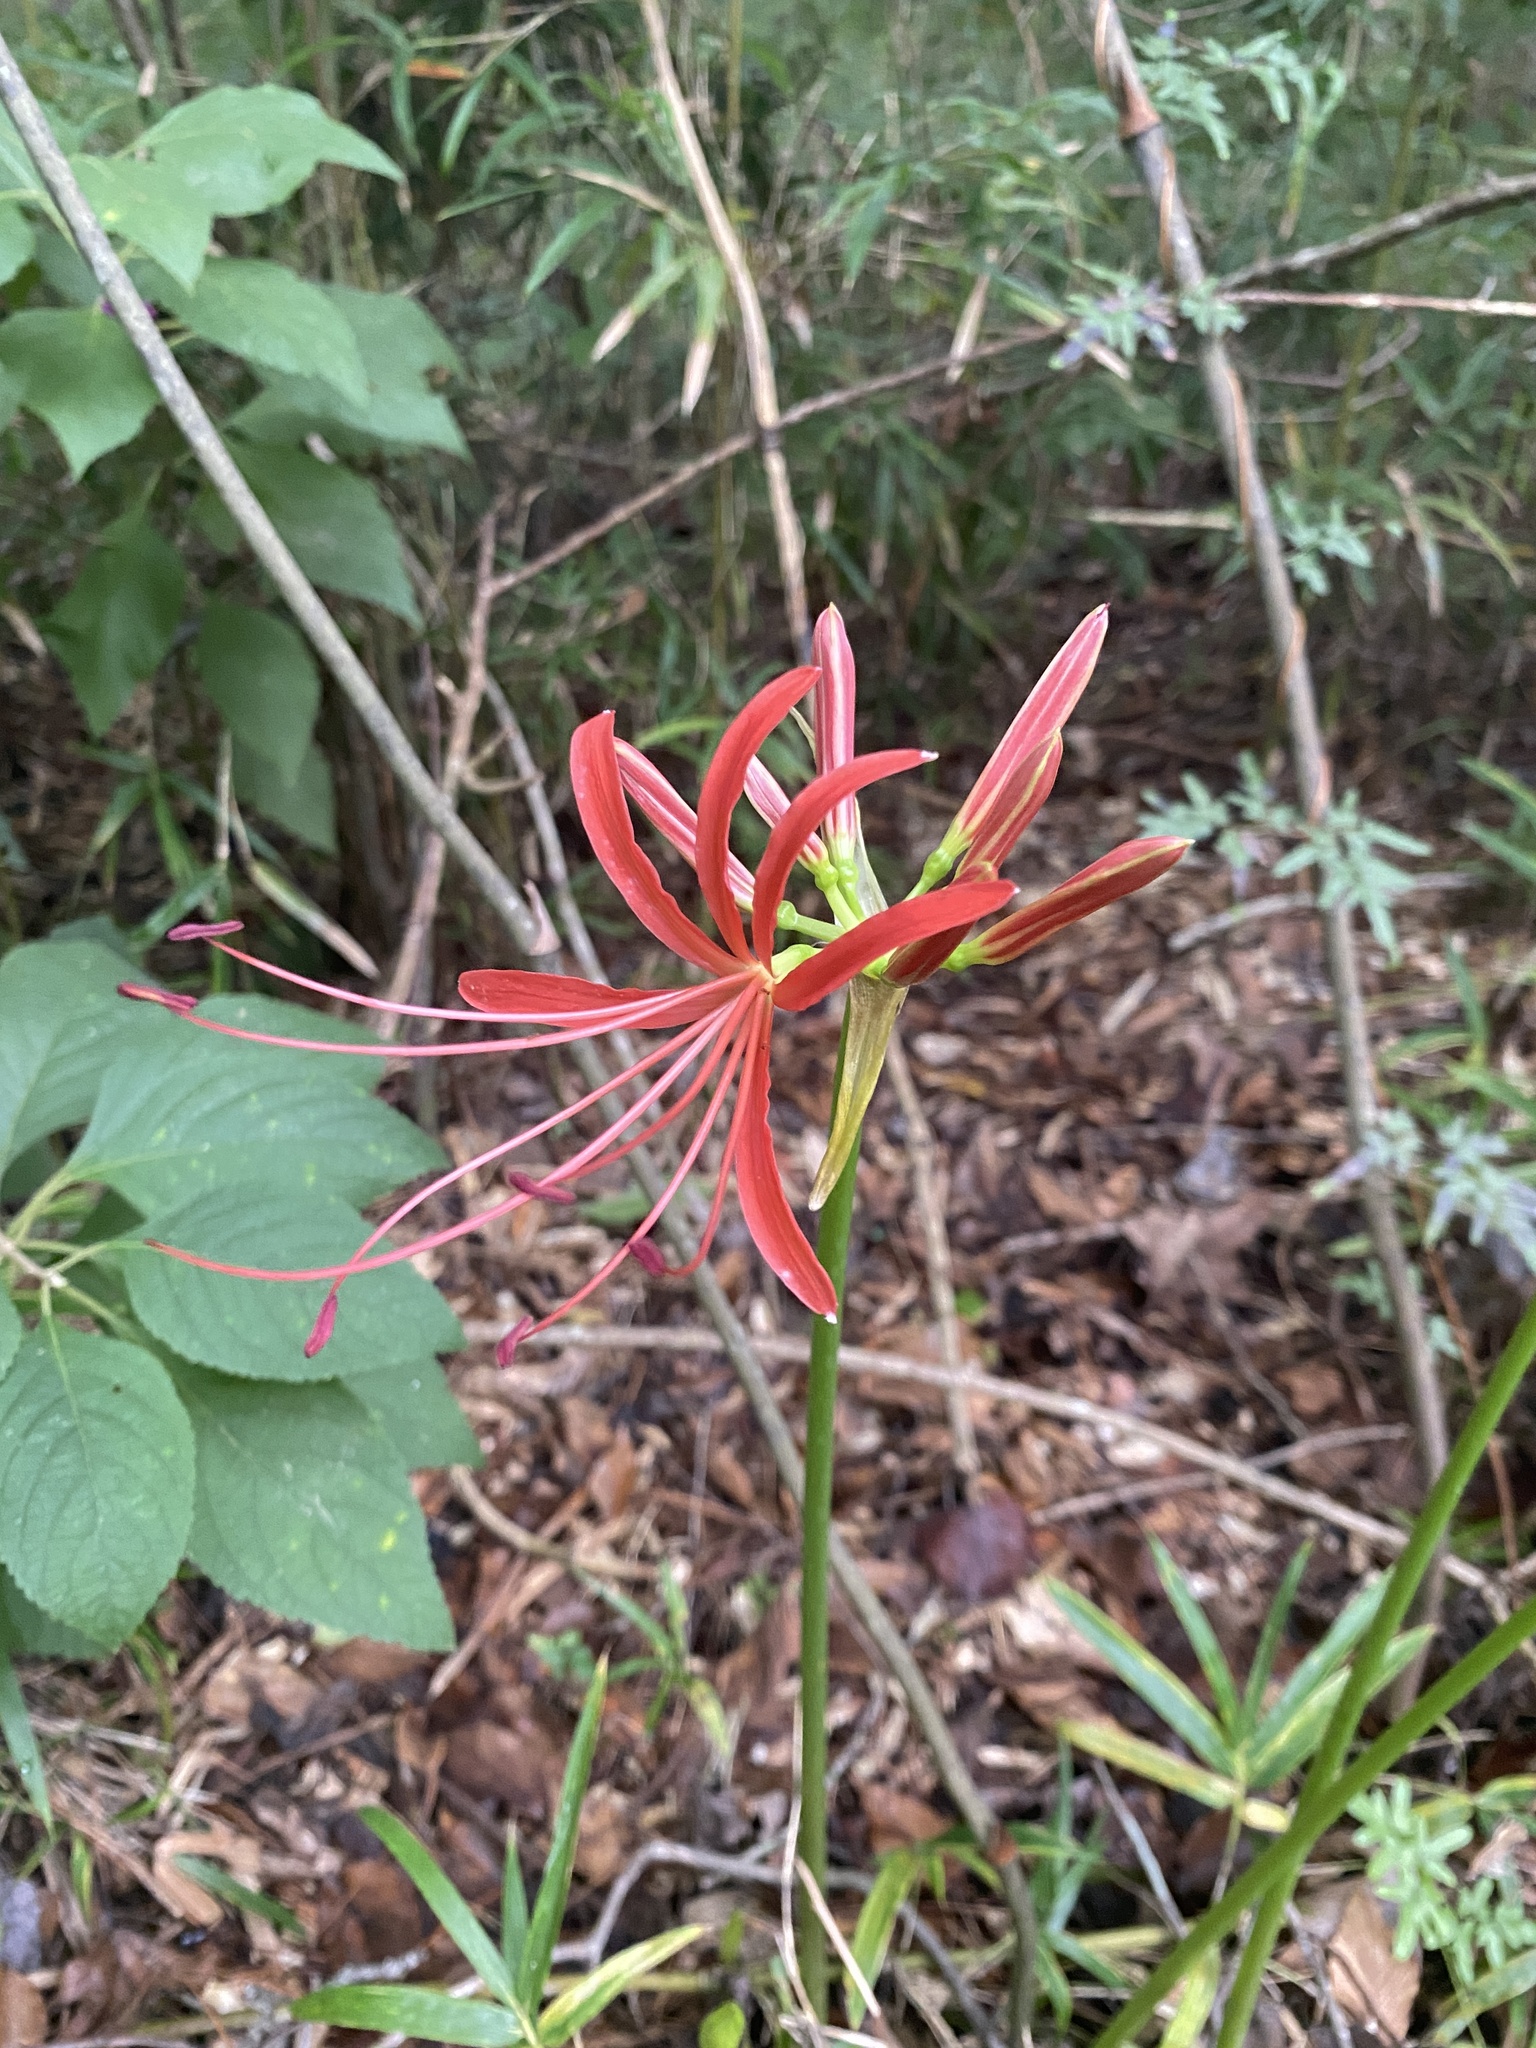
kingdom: Plantae
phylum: Tracheophyta
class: Liliopsida
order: Asparagales
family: Amaryllidaceae
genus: Lycoris
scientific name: Lycoris radiata
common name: Red spider lily
